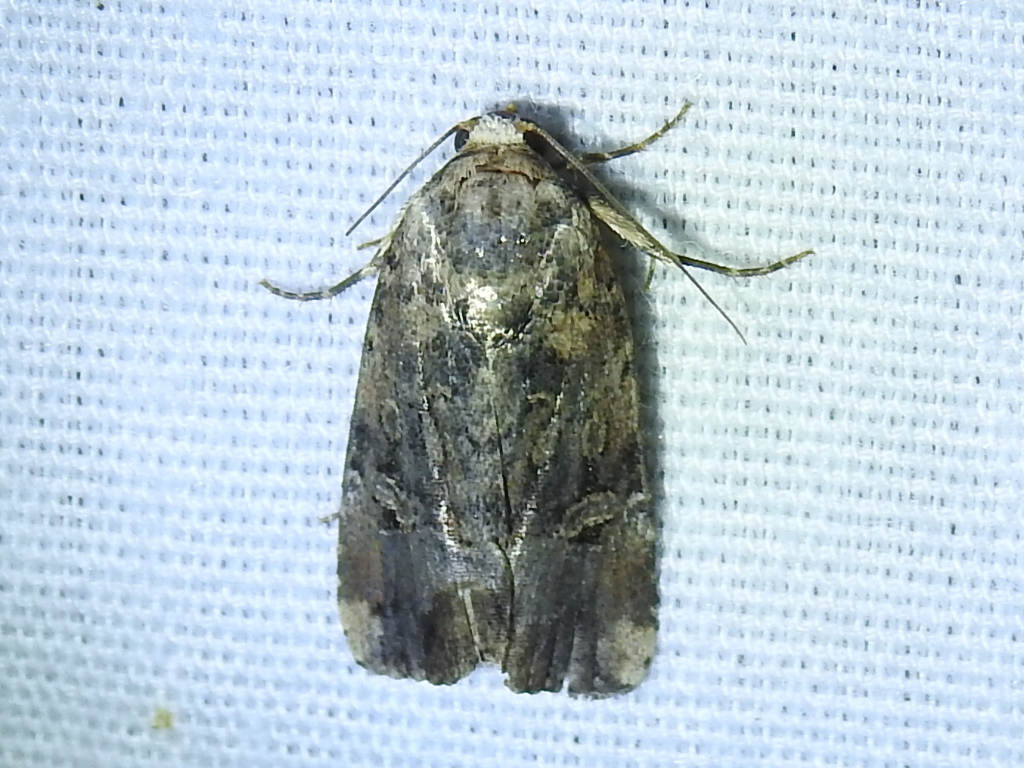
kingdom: Animalia
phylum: Arthropoda
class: Insecta
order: Lepidoptera
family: Noctuidae
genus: Elaphria
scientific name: Elaphria chalcedonia
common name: Chalcedony midget
